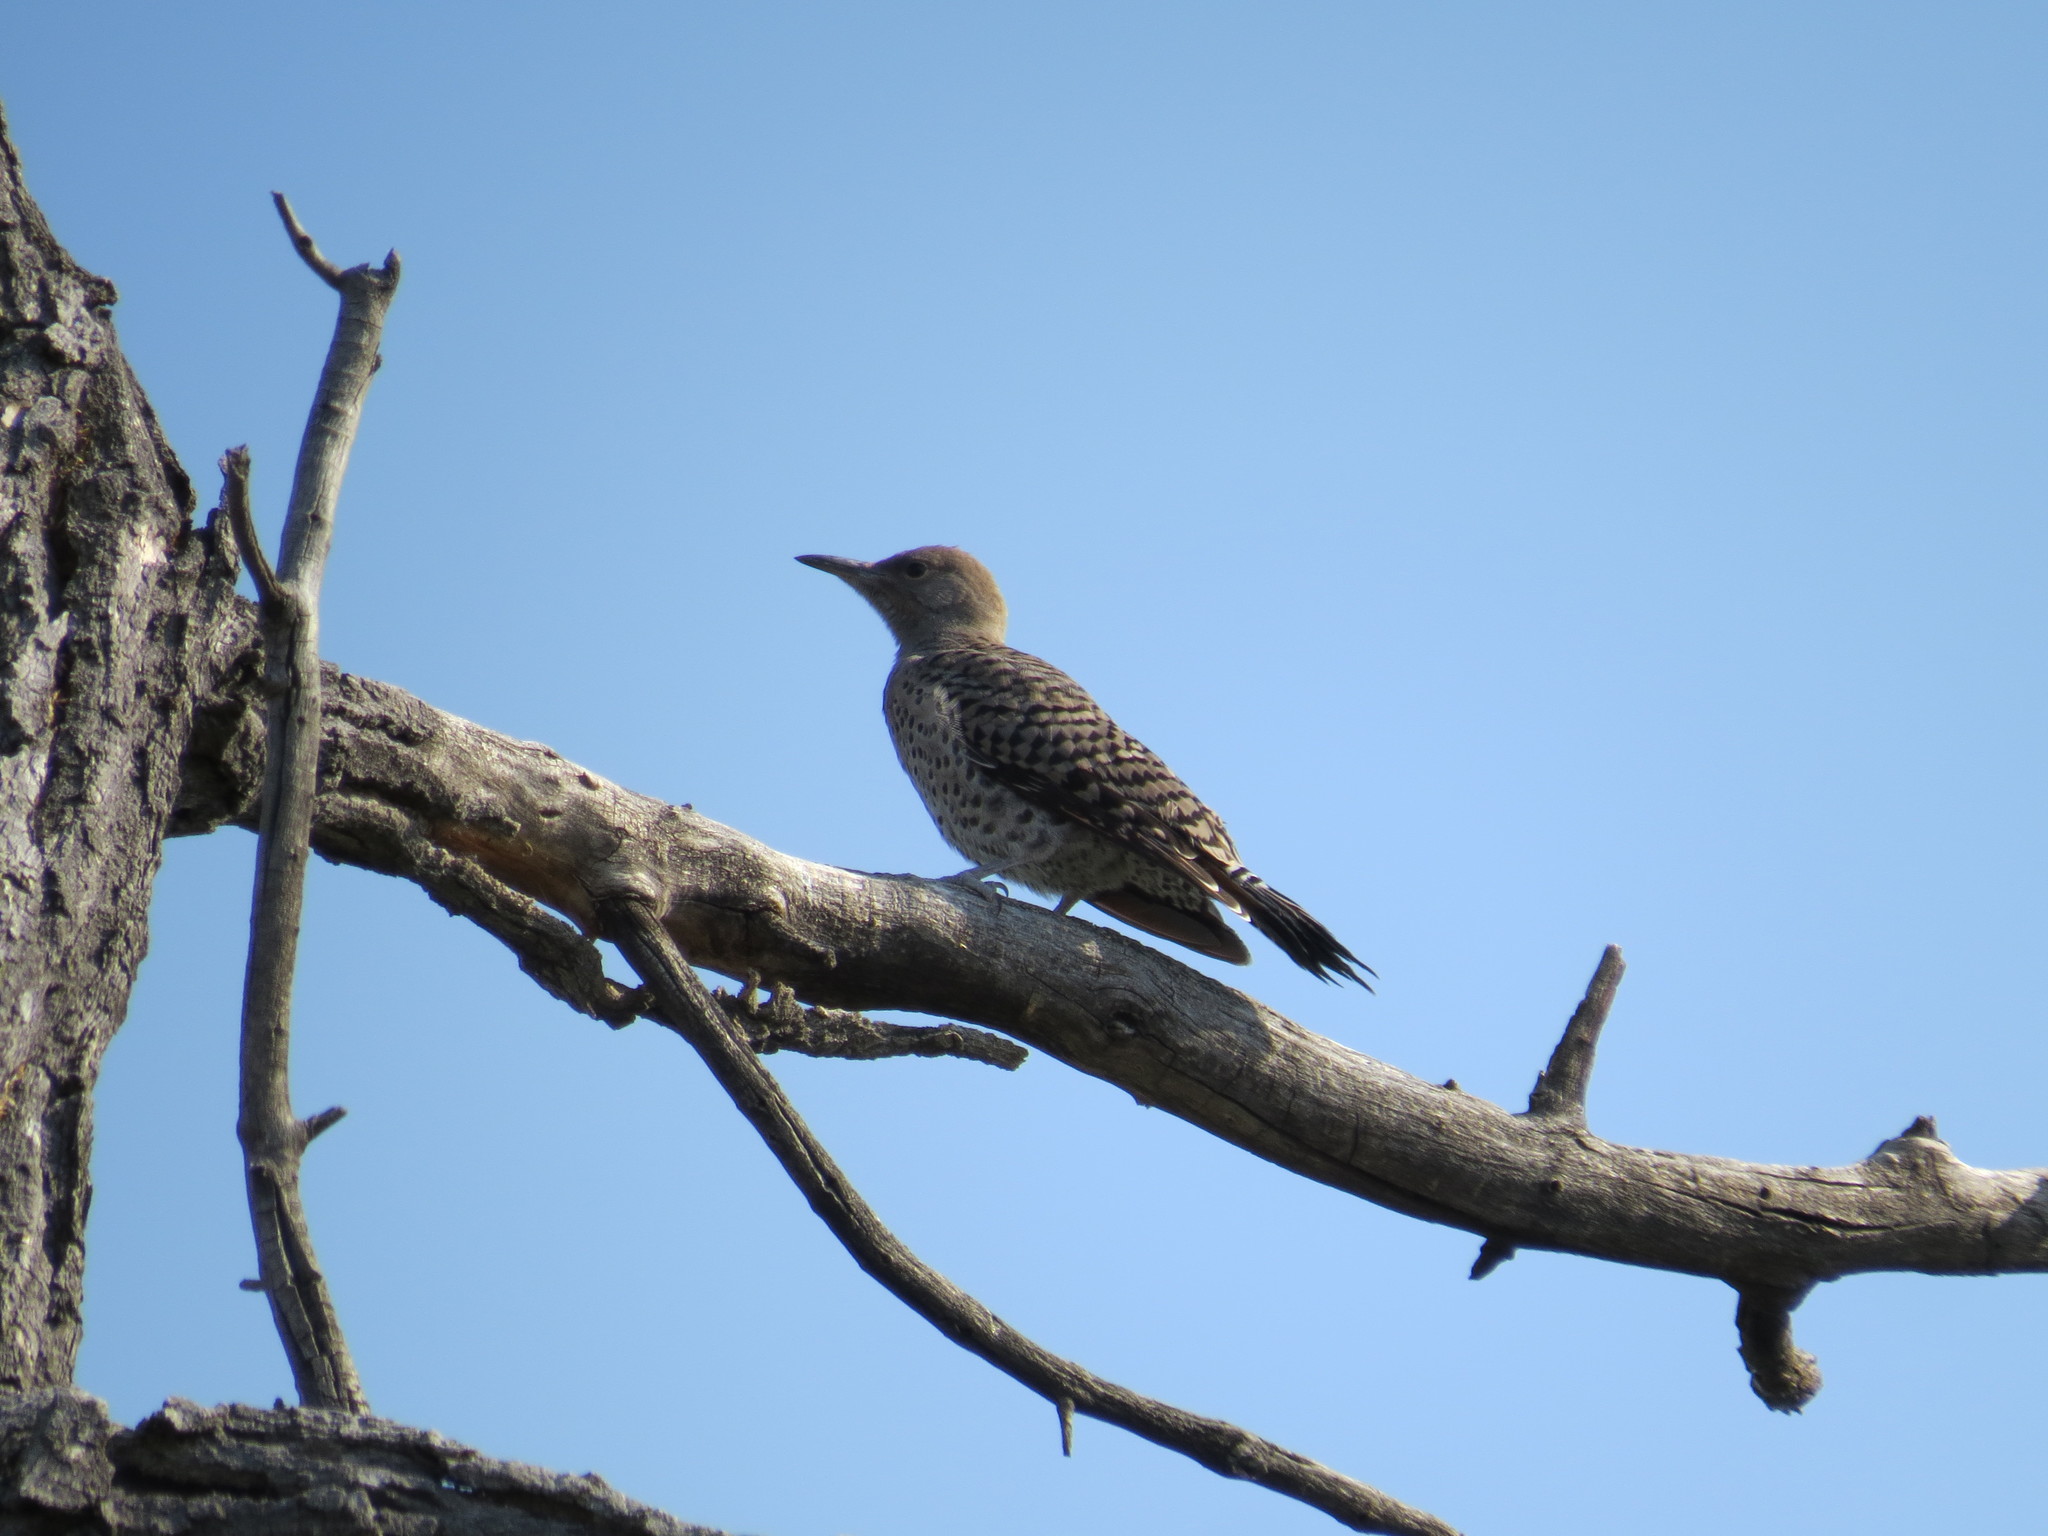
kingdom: Animalia
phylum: Chordata
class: Aves
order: Piciformes
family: Picidae
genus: Colaptes
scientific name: Colaptes auratus
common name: Northern flicker
